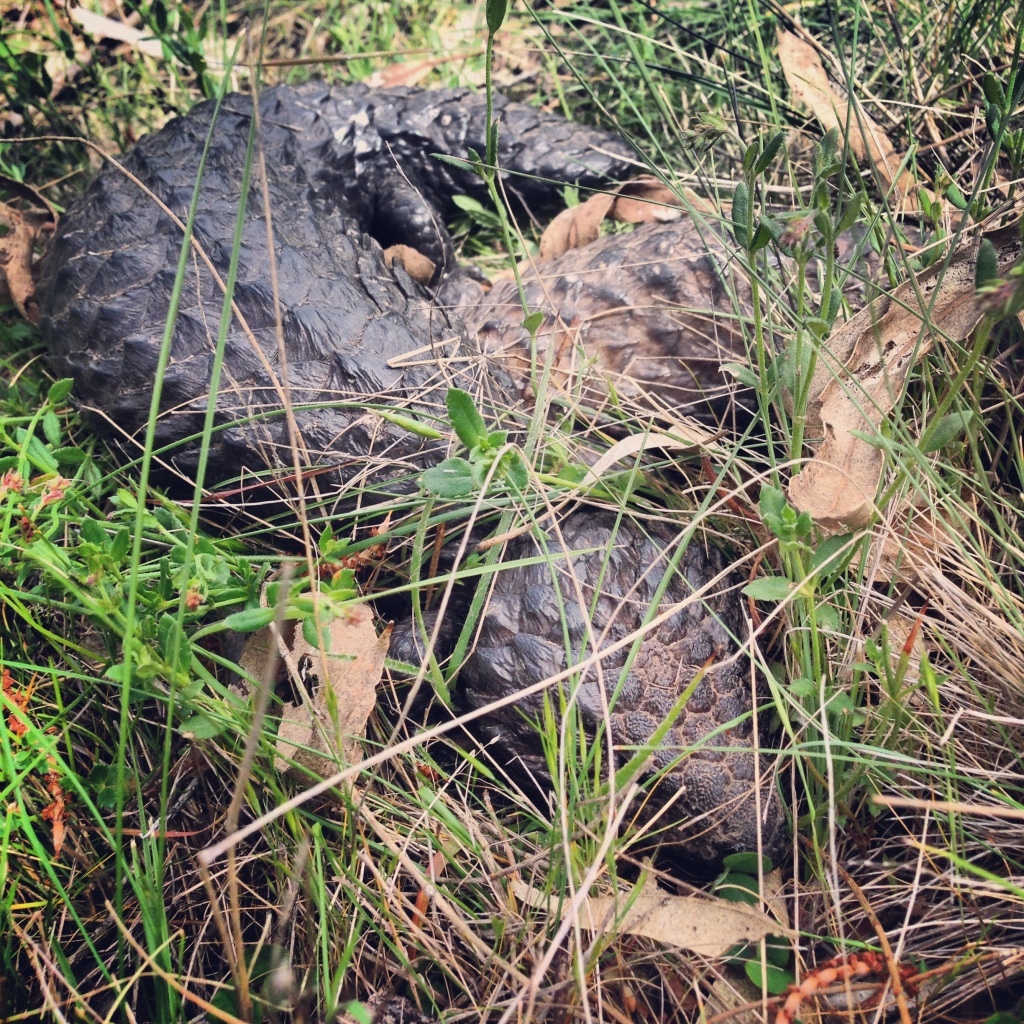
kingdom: Animalia
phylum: Chordata
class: Squamata
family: Scincidae
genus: Tiliqua
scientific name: Tiliqua rugosa
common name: Pinecone lizard
